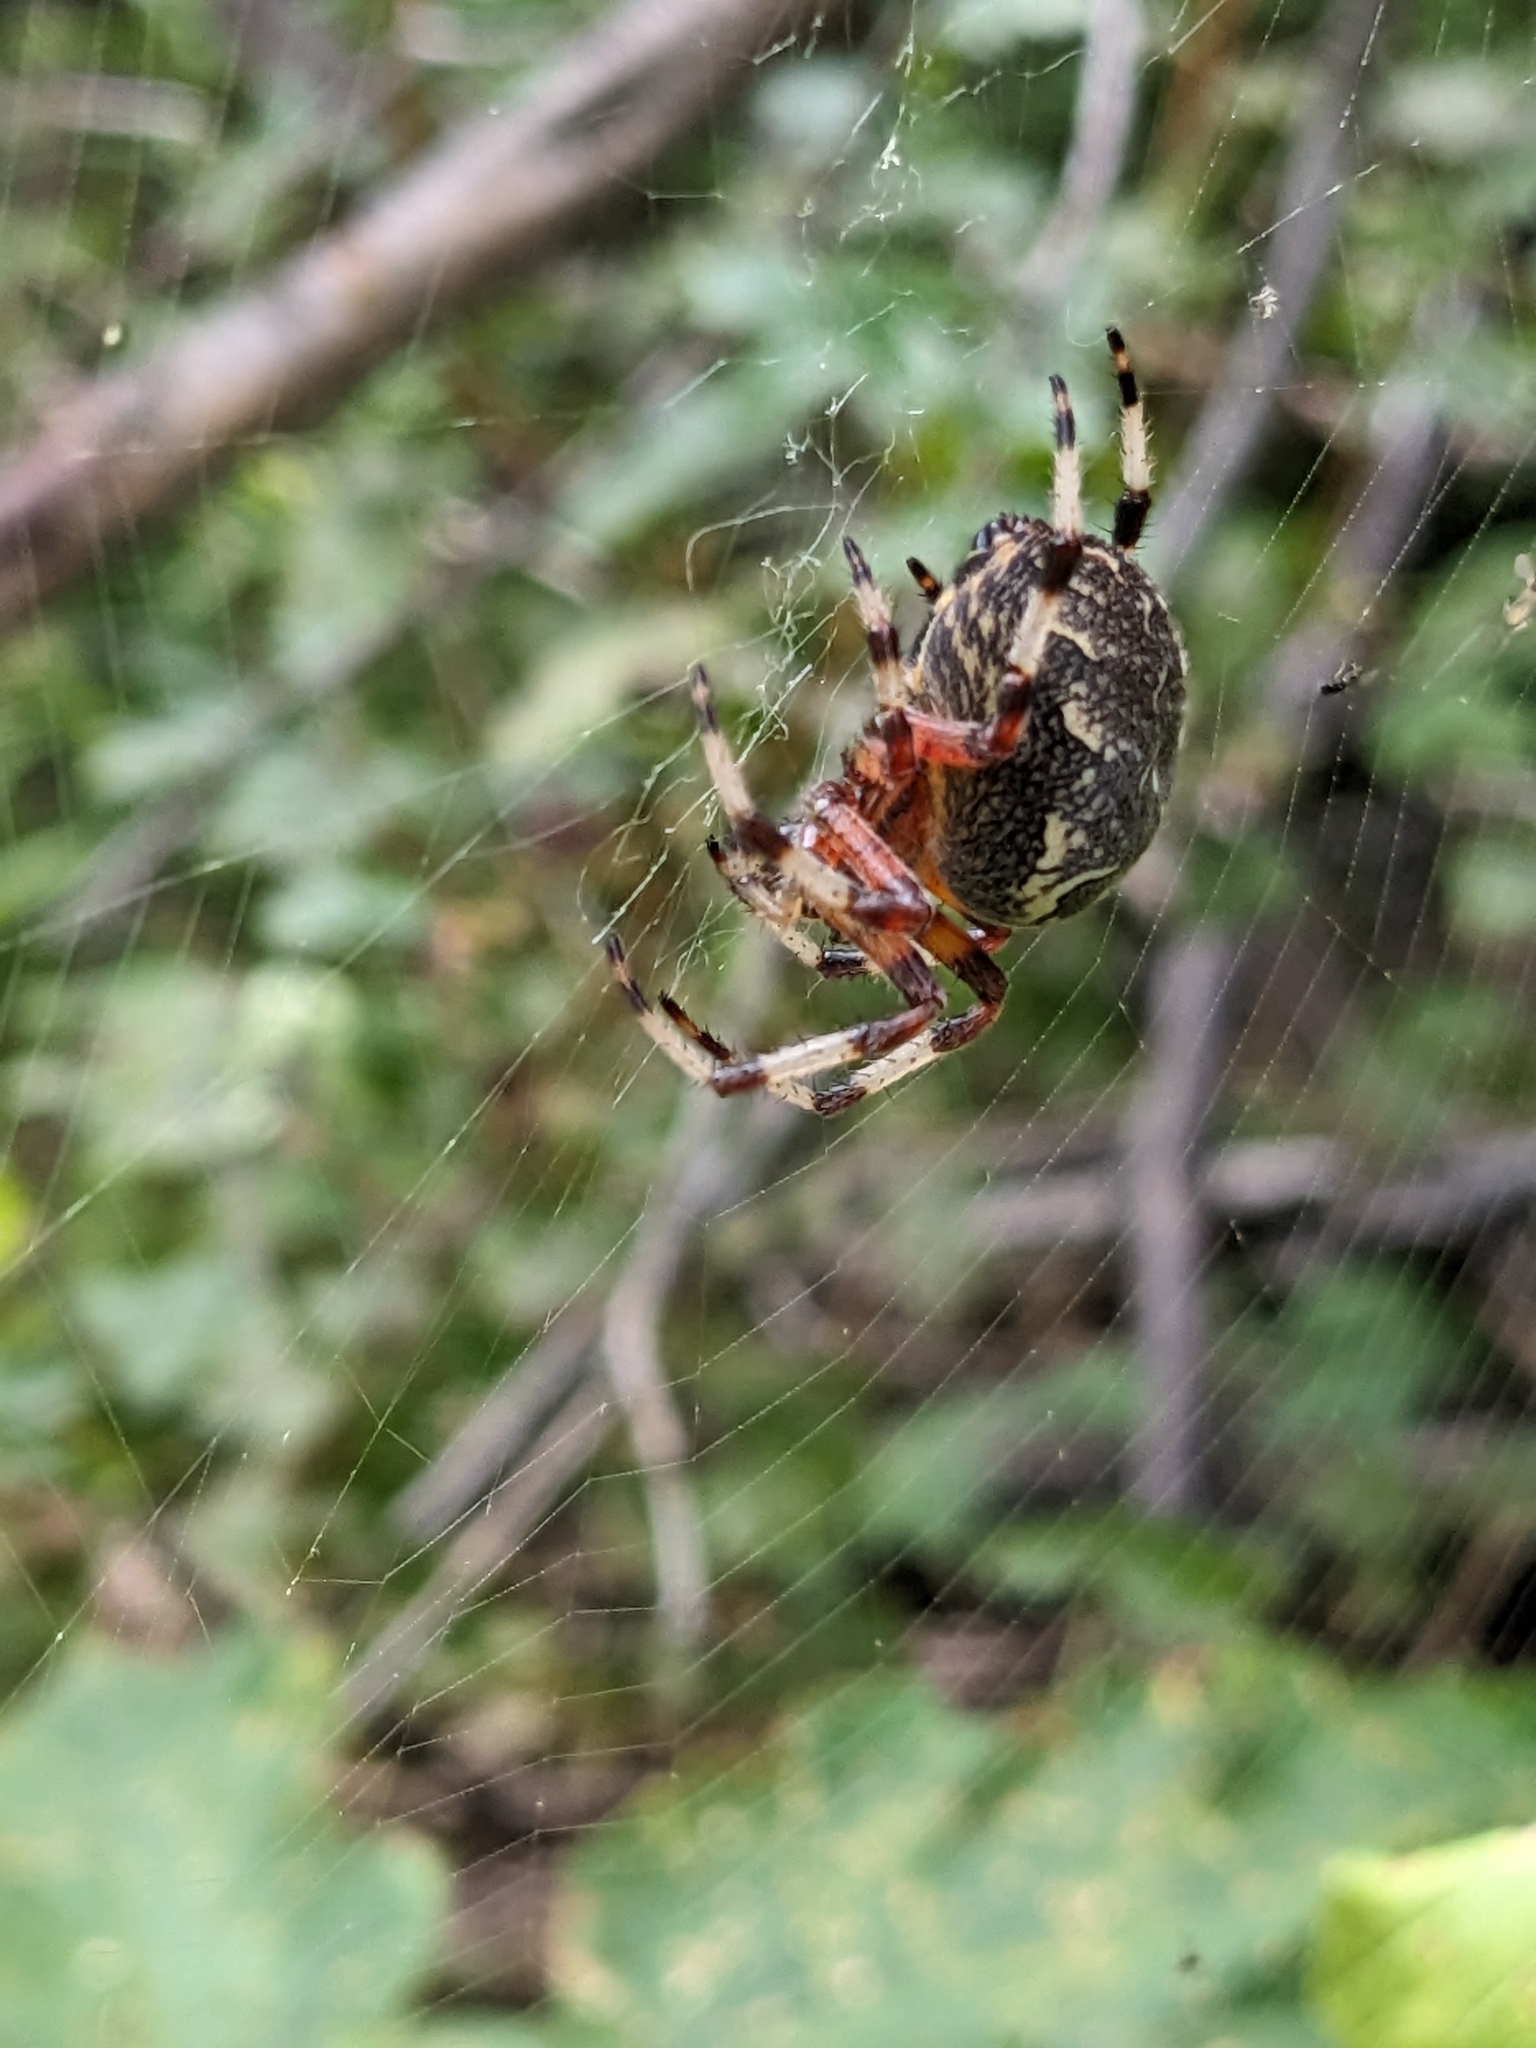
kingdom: Animalia
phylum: Arthropoda
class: Arachnida
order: Araneae
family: Araneidae
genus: Araneus
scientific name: Araneus marmoreus
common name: Marbled orbweaver
